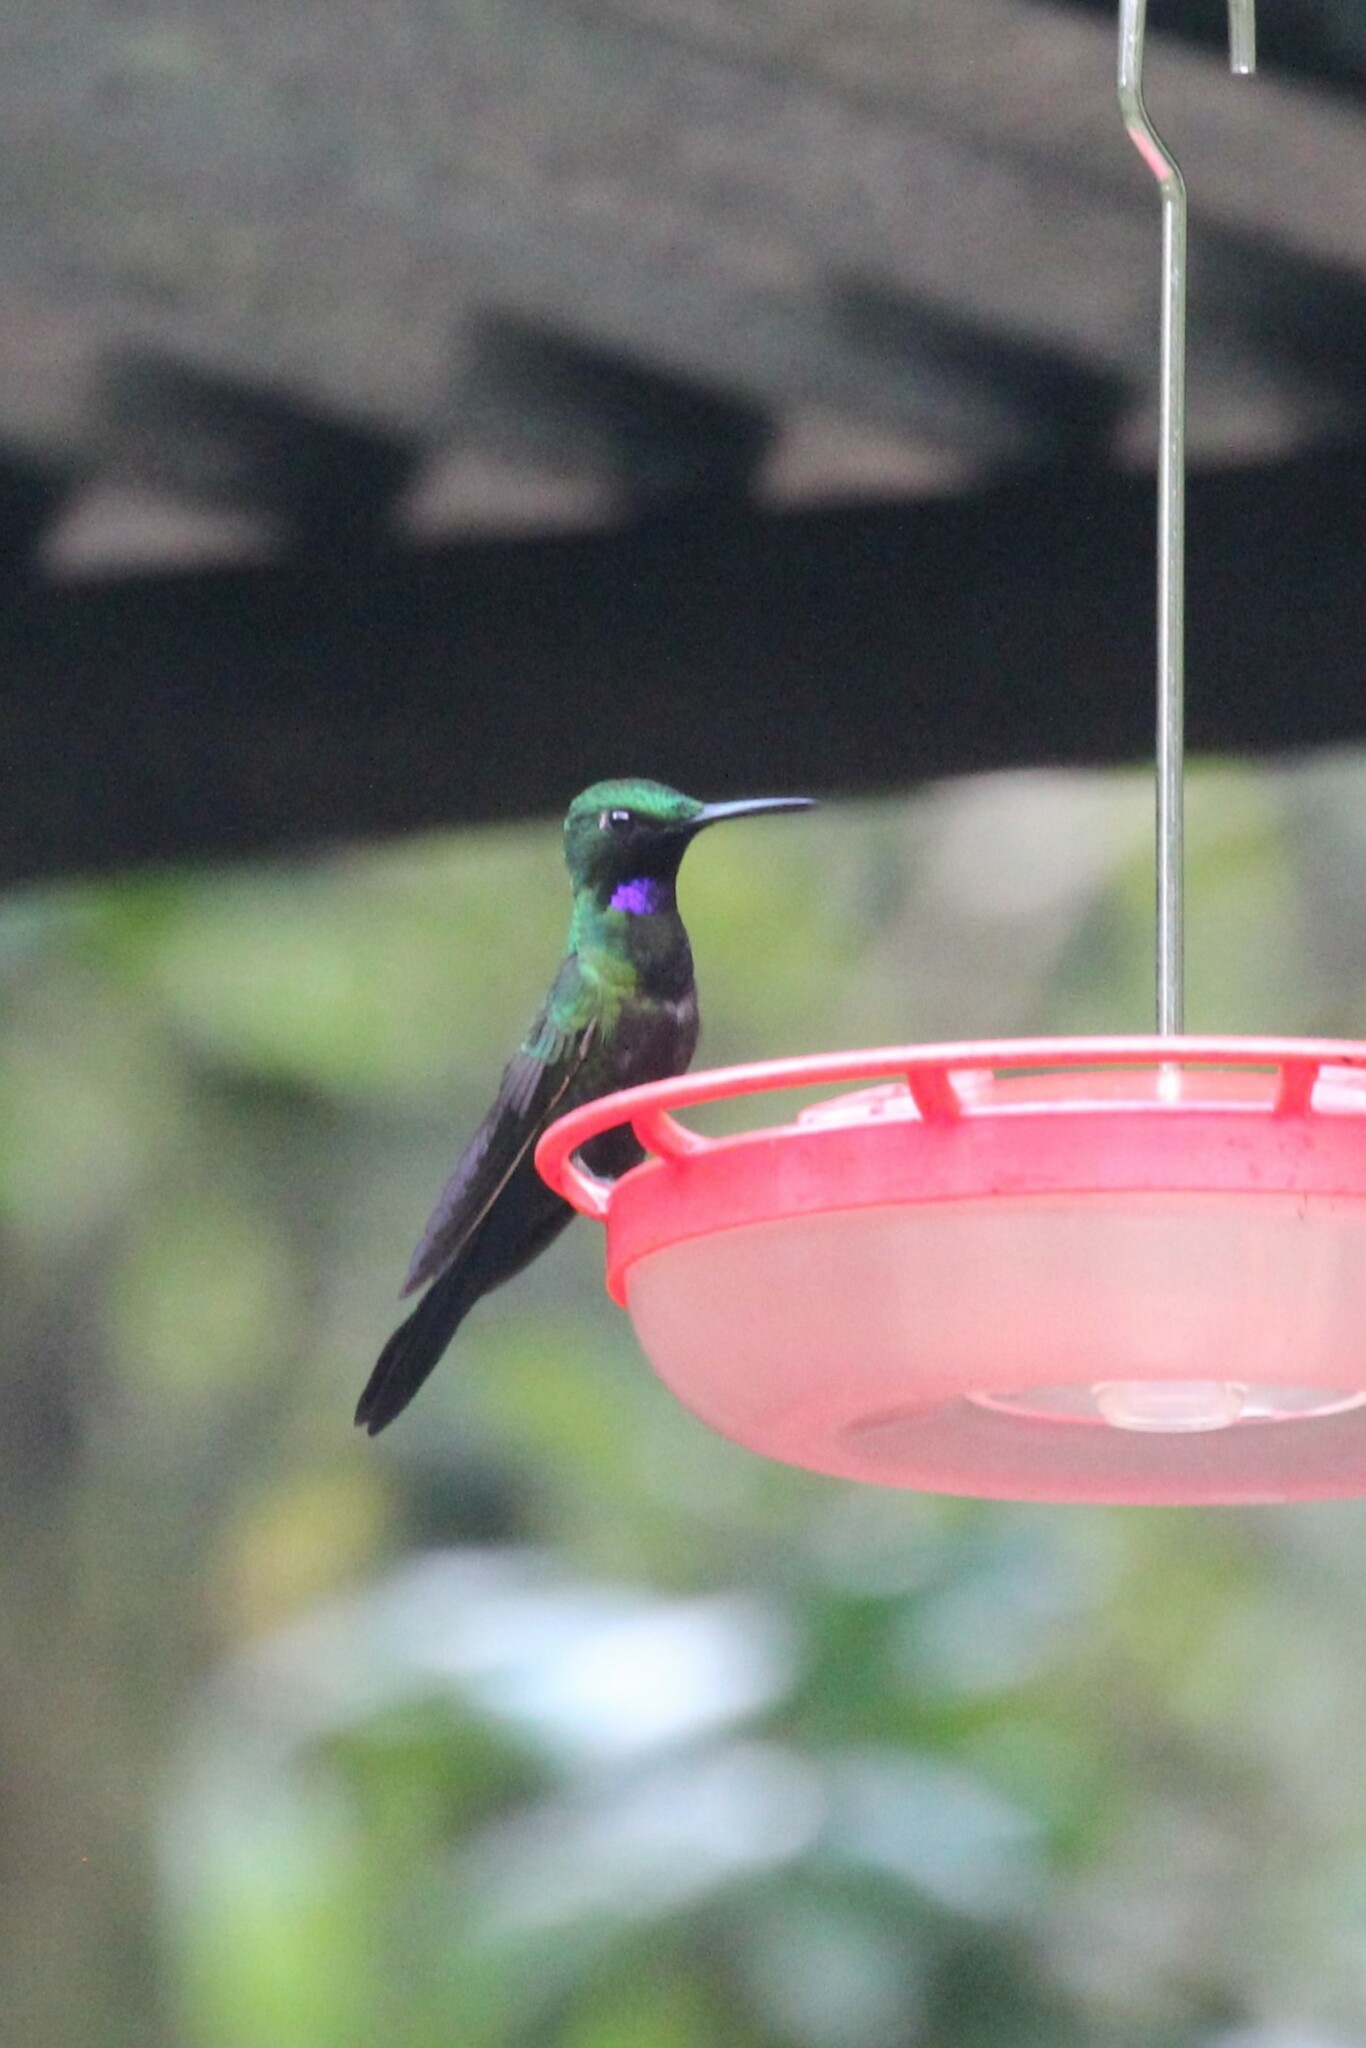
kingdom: Animalia
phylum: Chordata
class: Aves
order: Apodiformes
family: Trochilidae
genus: Heliodoxa
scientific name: Heliodoxa schreibersii
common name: Black-throated brilliant
